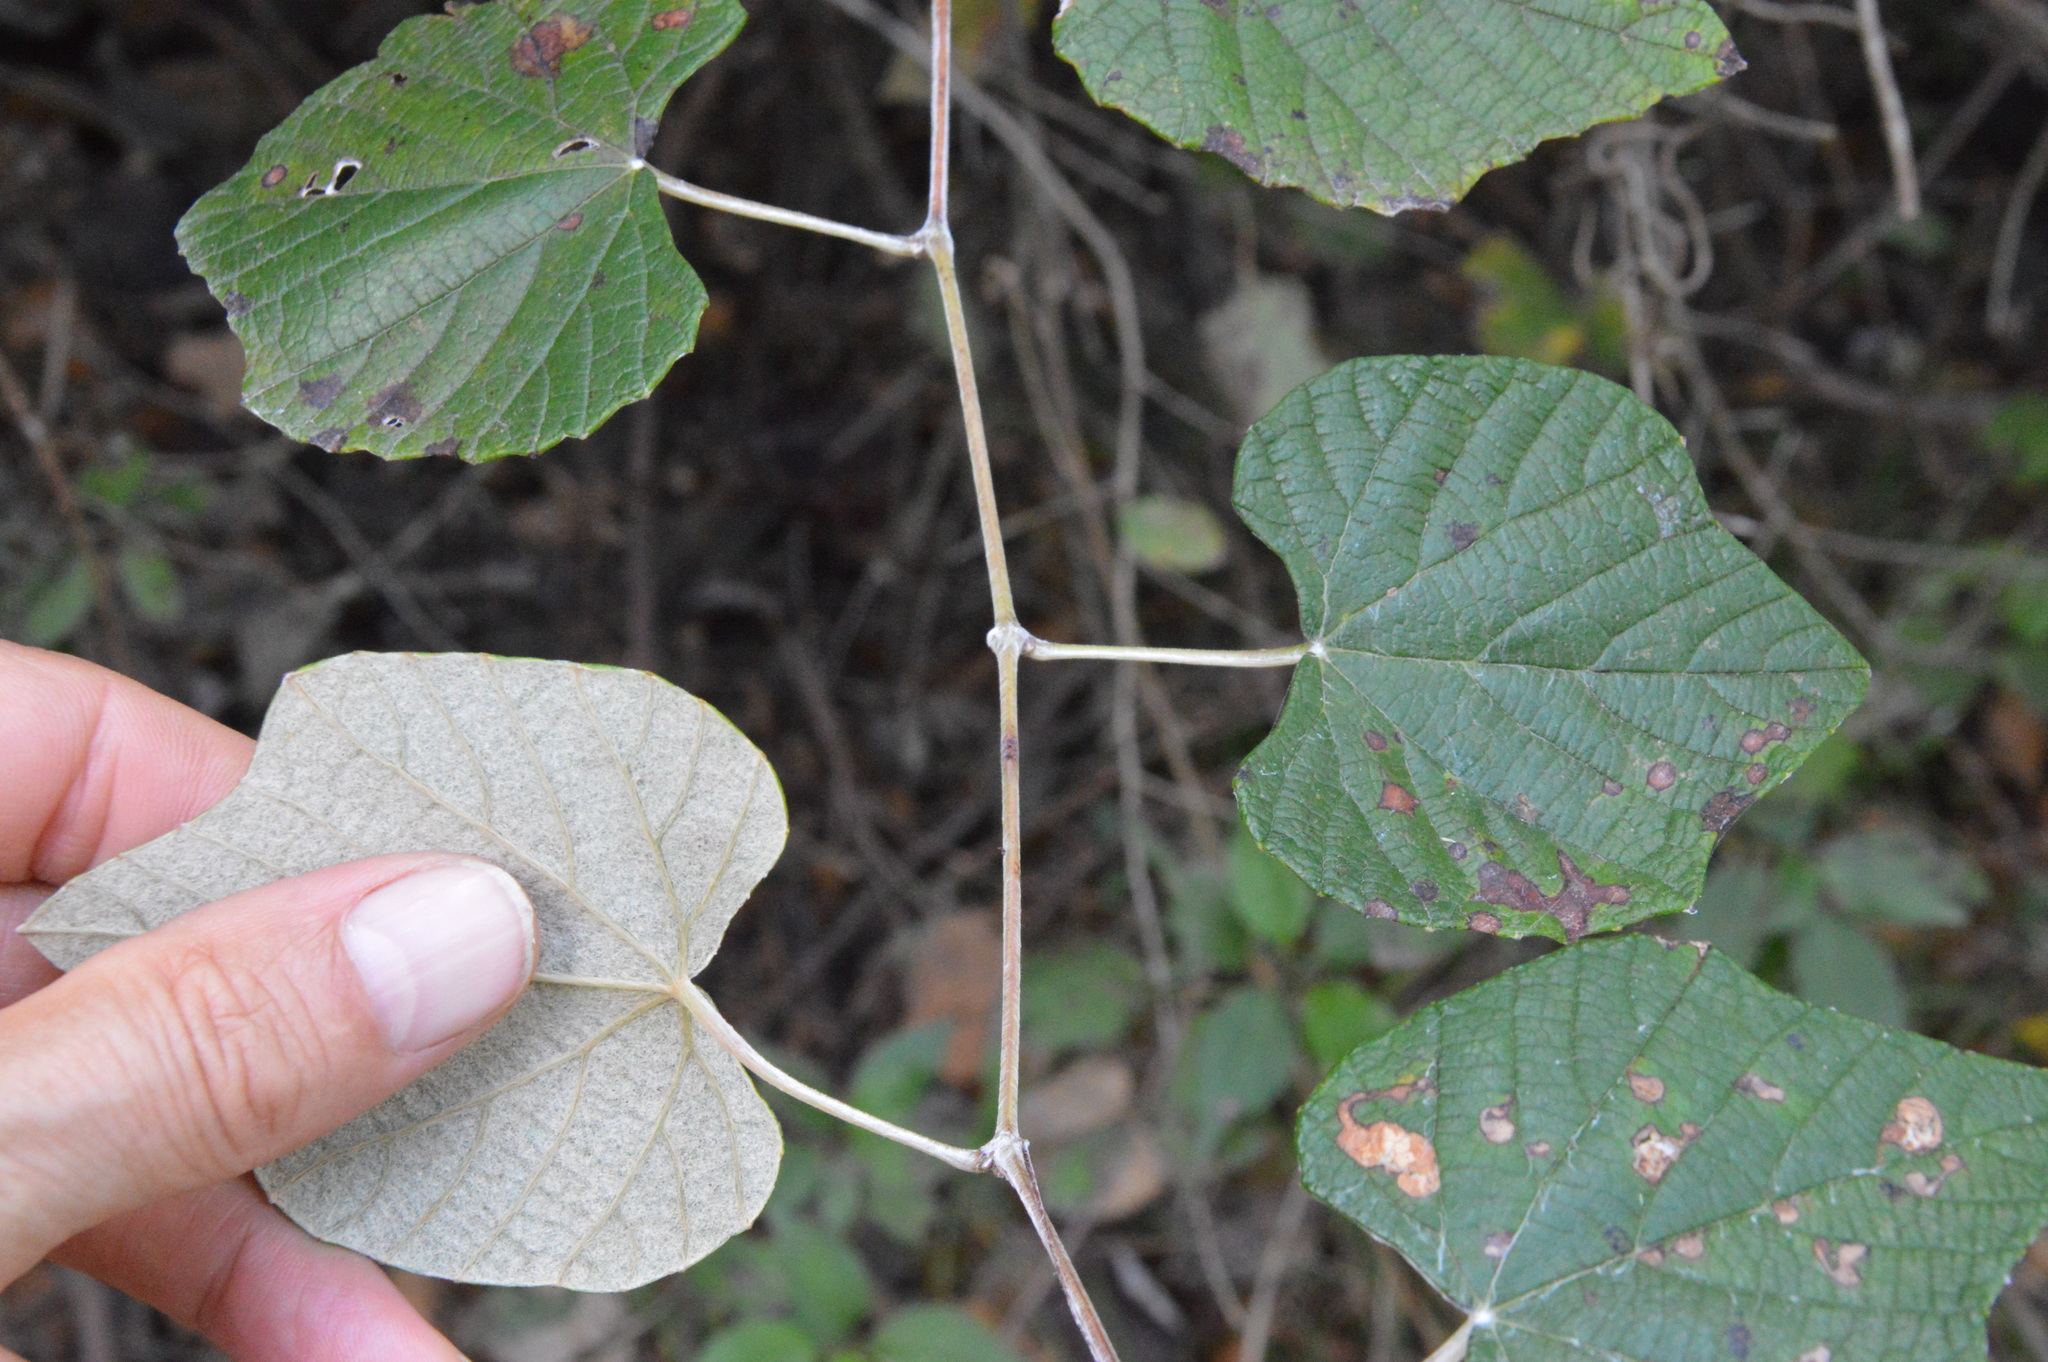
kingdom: Plantae
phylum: Tracheophyta
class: Magnoliopsida
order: Vitales
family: Vitaceae
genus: Vitis
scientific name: Vitis mustangensis
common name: Mustang grape
